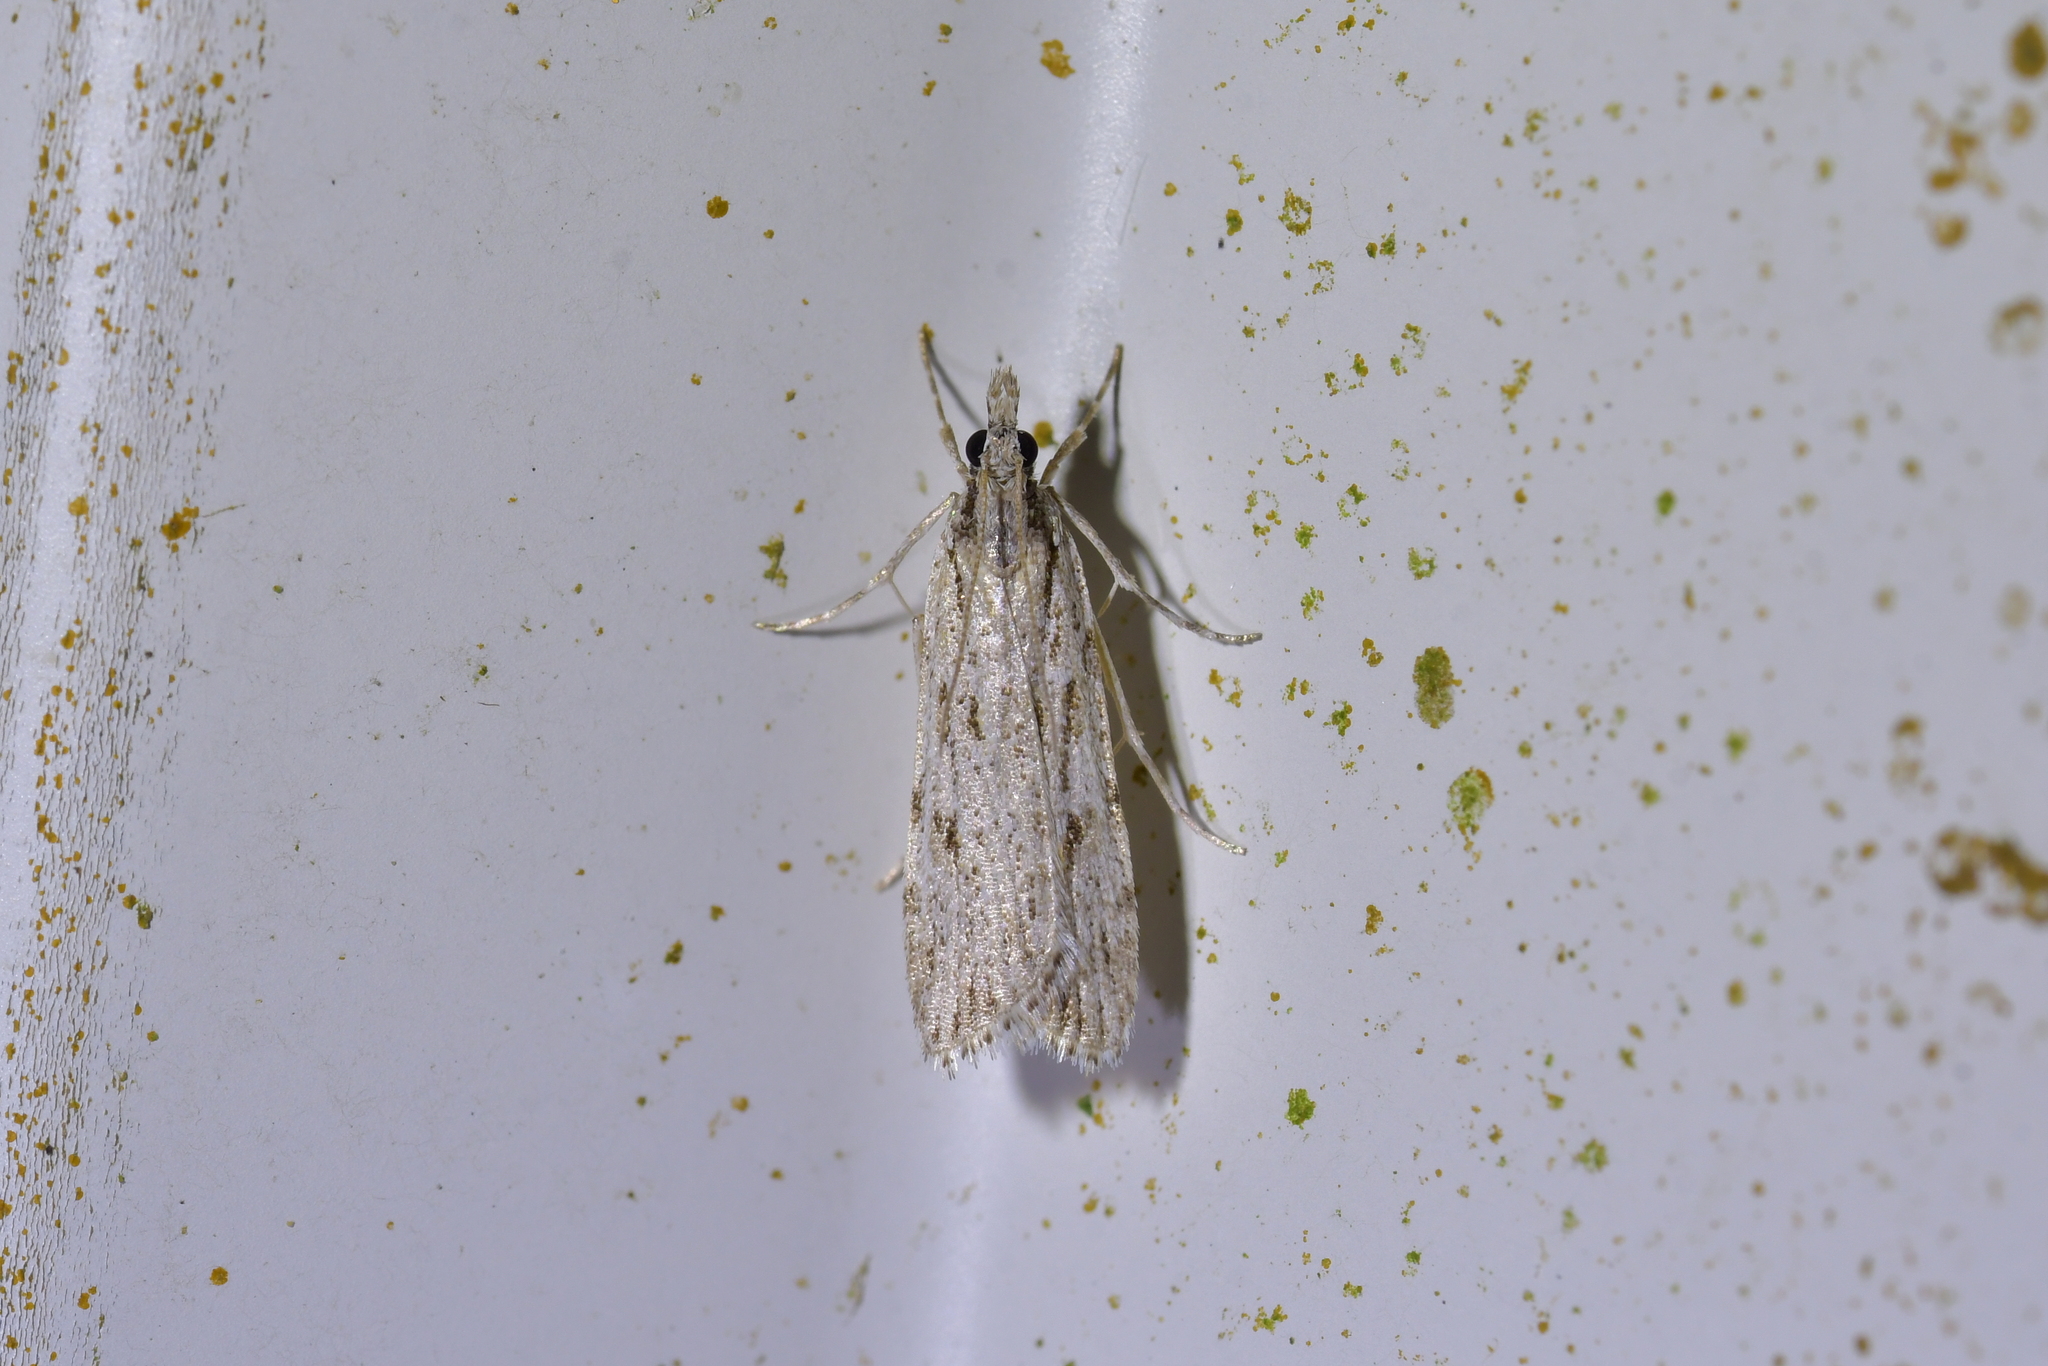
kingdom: Animalia
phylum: Arthropoda
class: Insecta
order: Lepidoptera
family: Crambidae
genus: Scoparia
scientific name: Scoparia chalicodes
